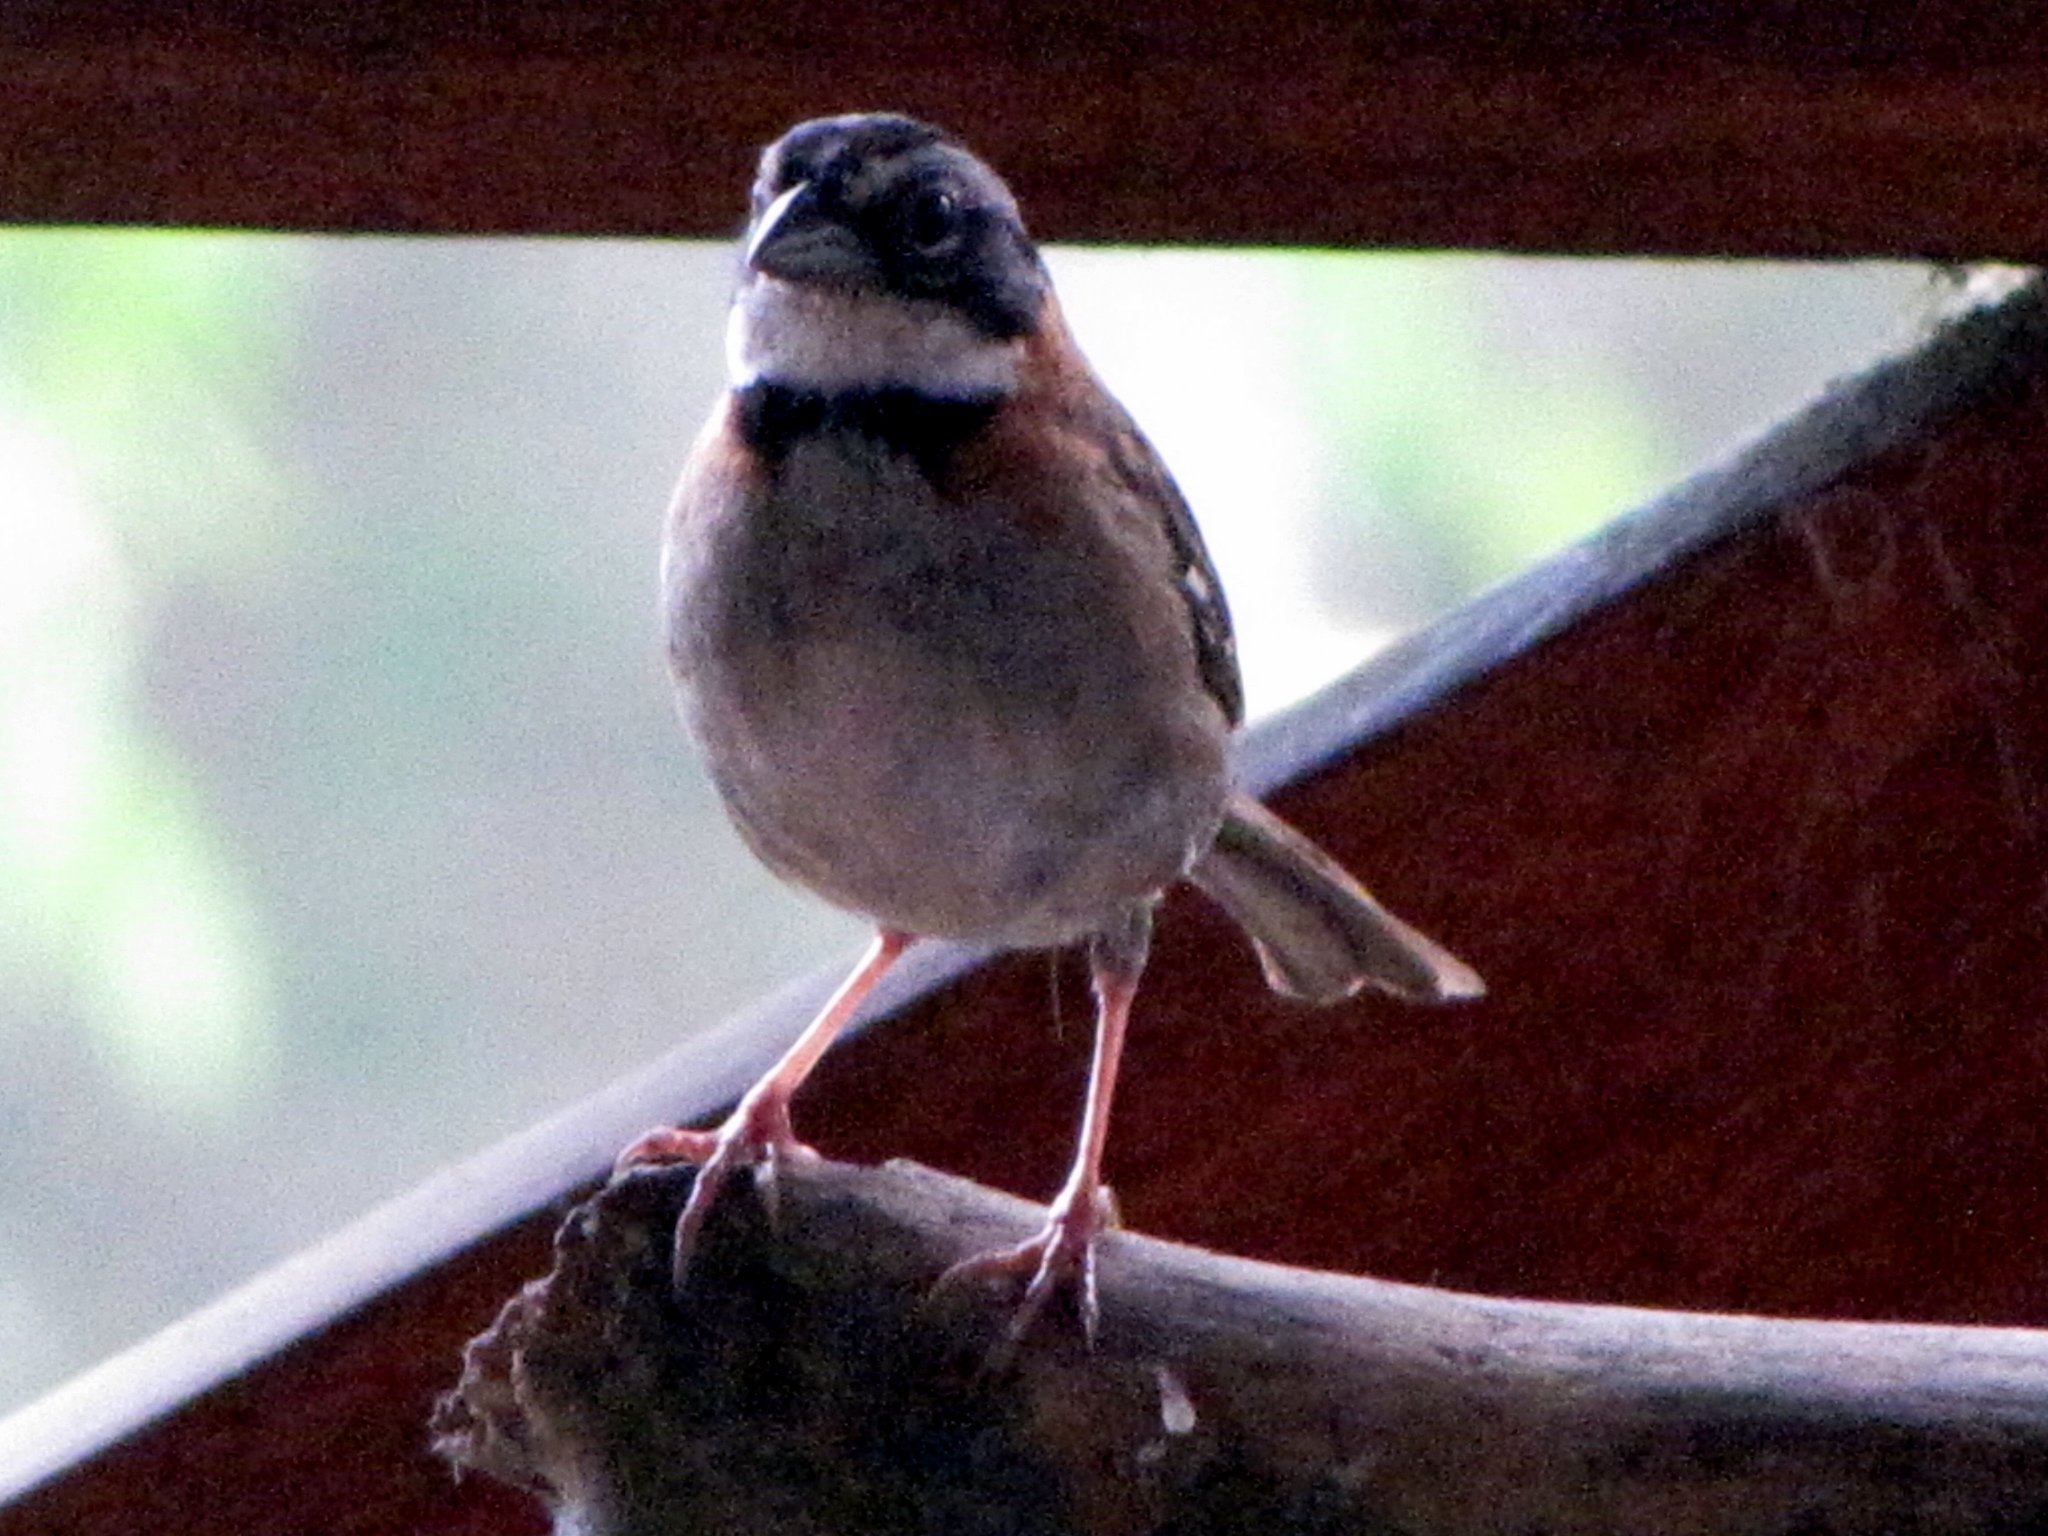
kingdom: Animalia
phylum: Chordata
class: Aves
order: Passeriformes
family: Passerellidae
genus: Zonotrichia
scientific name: Zonotrichia capensis
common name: Rufous-collared sparrow
